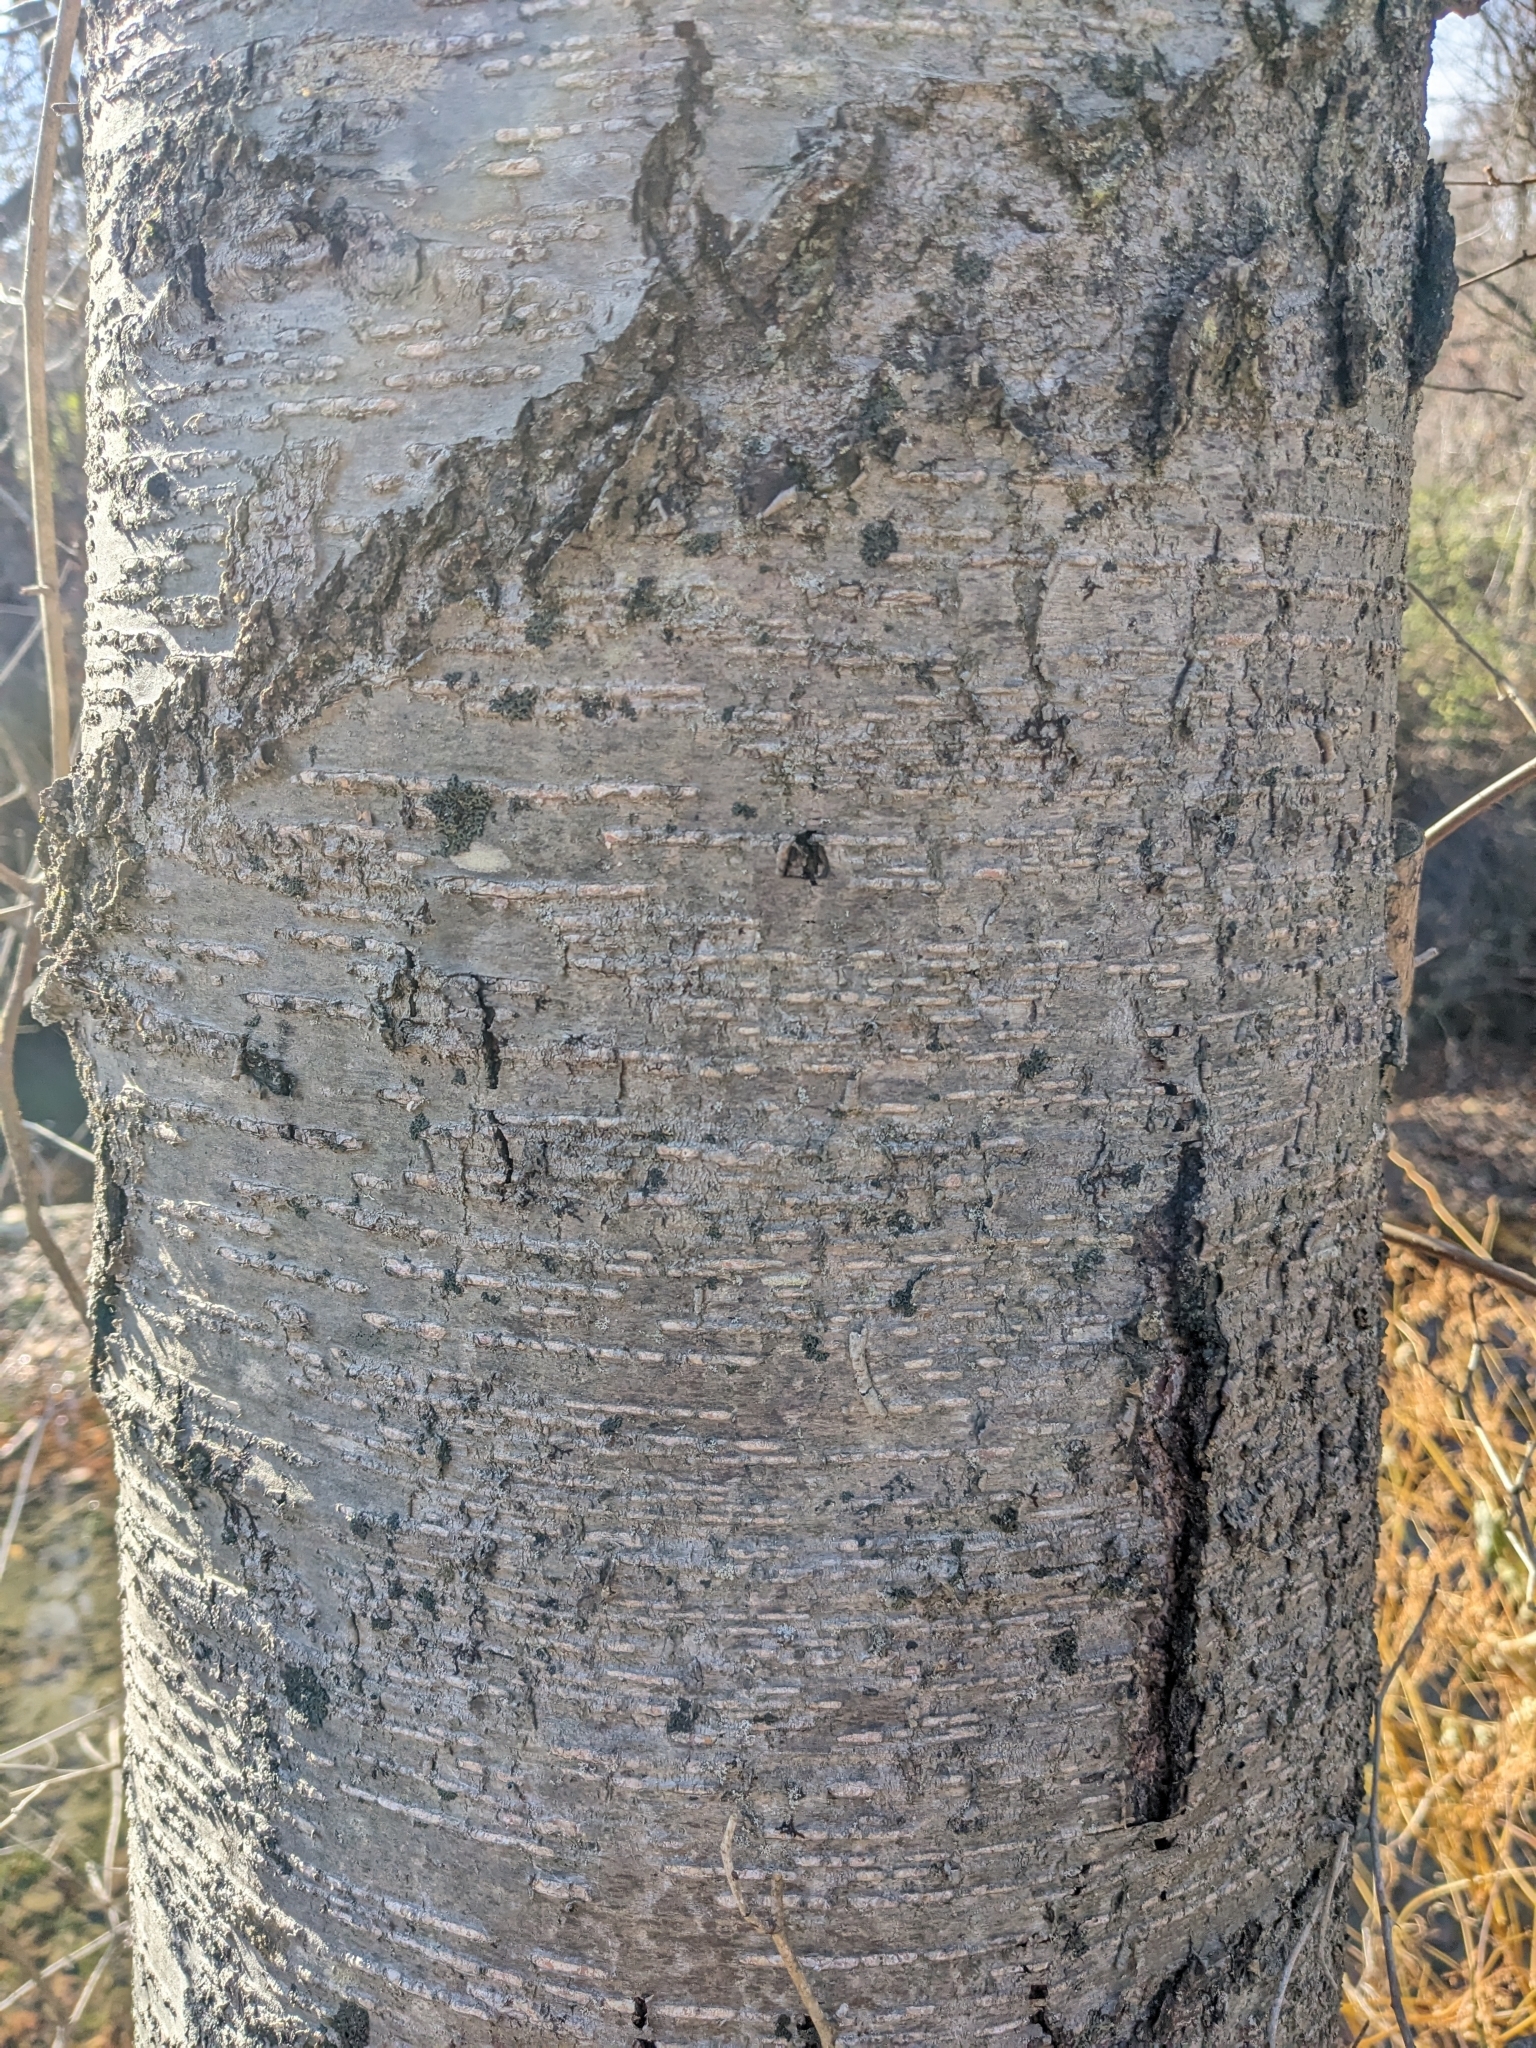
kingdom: Plantae
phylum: Tracheophyta
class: Magnoliopsida
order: Fagales
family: Betulaceae
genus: Betula
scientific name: Betula lenta
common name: Black birch
